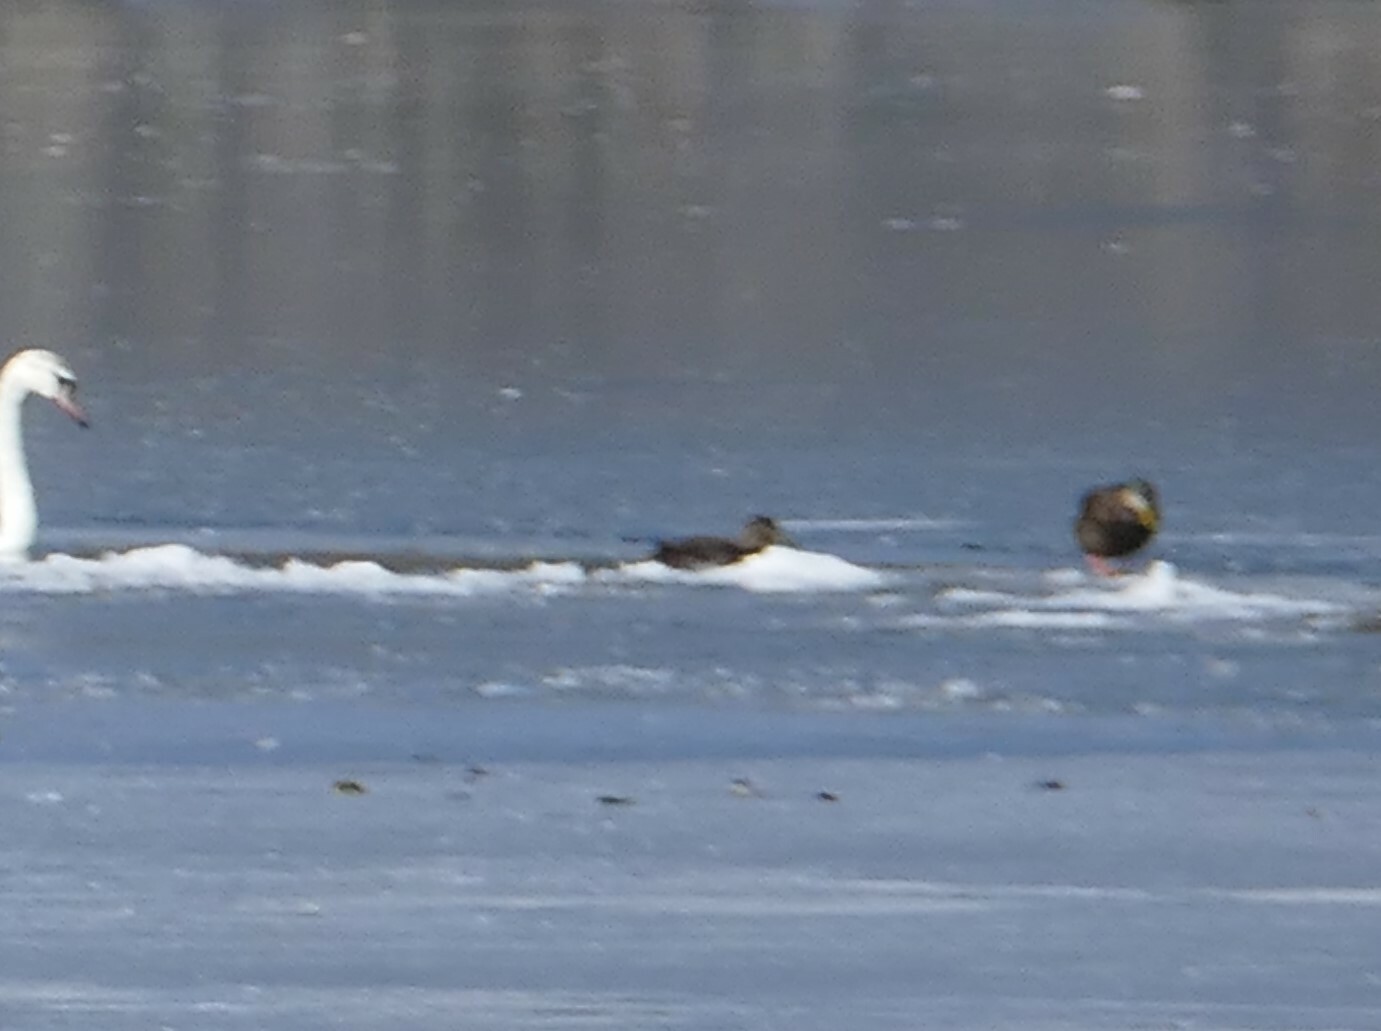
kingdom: Animalia
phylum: Chordata
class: Aves
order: Anseriformes
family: Anatidae
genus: Anas
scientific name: Anas rubripes
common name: American black duck
